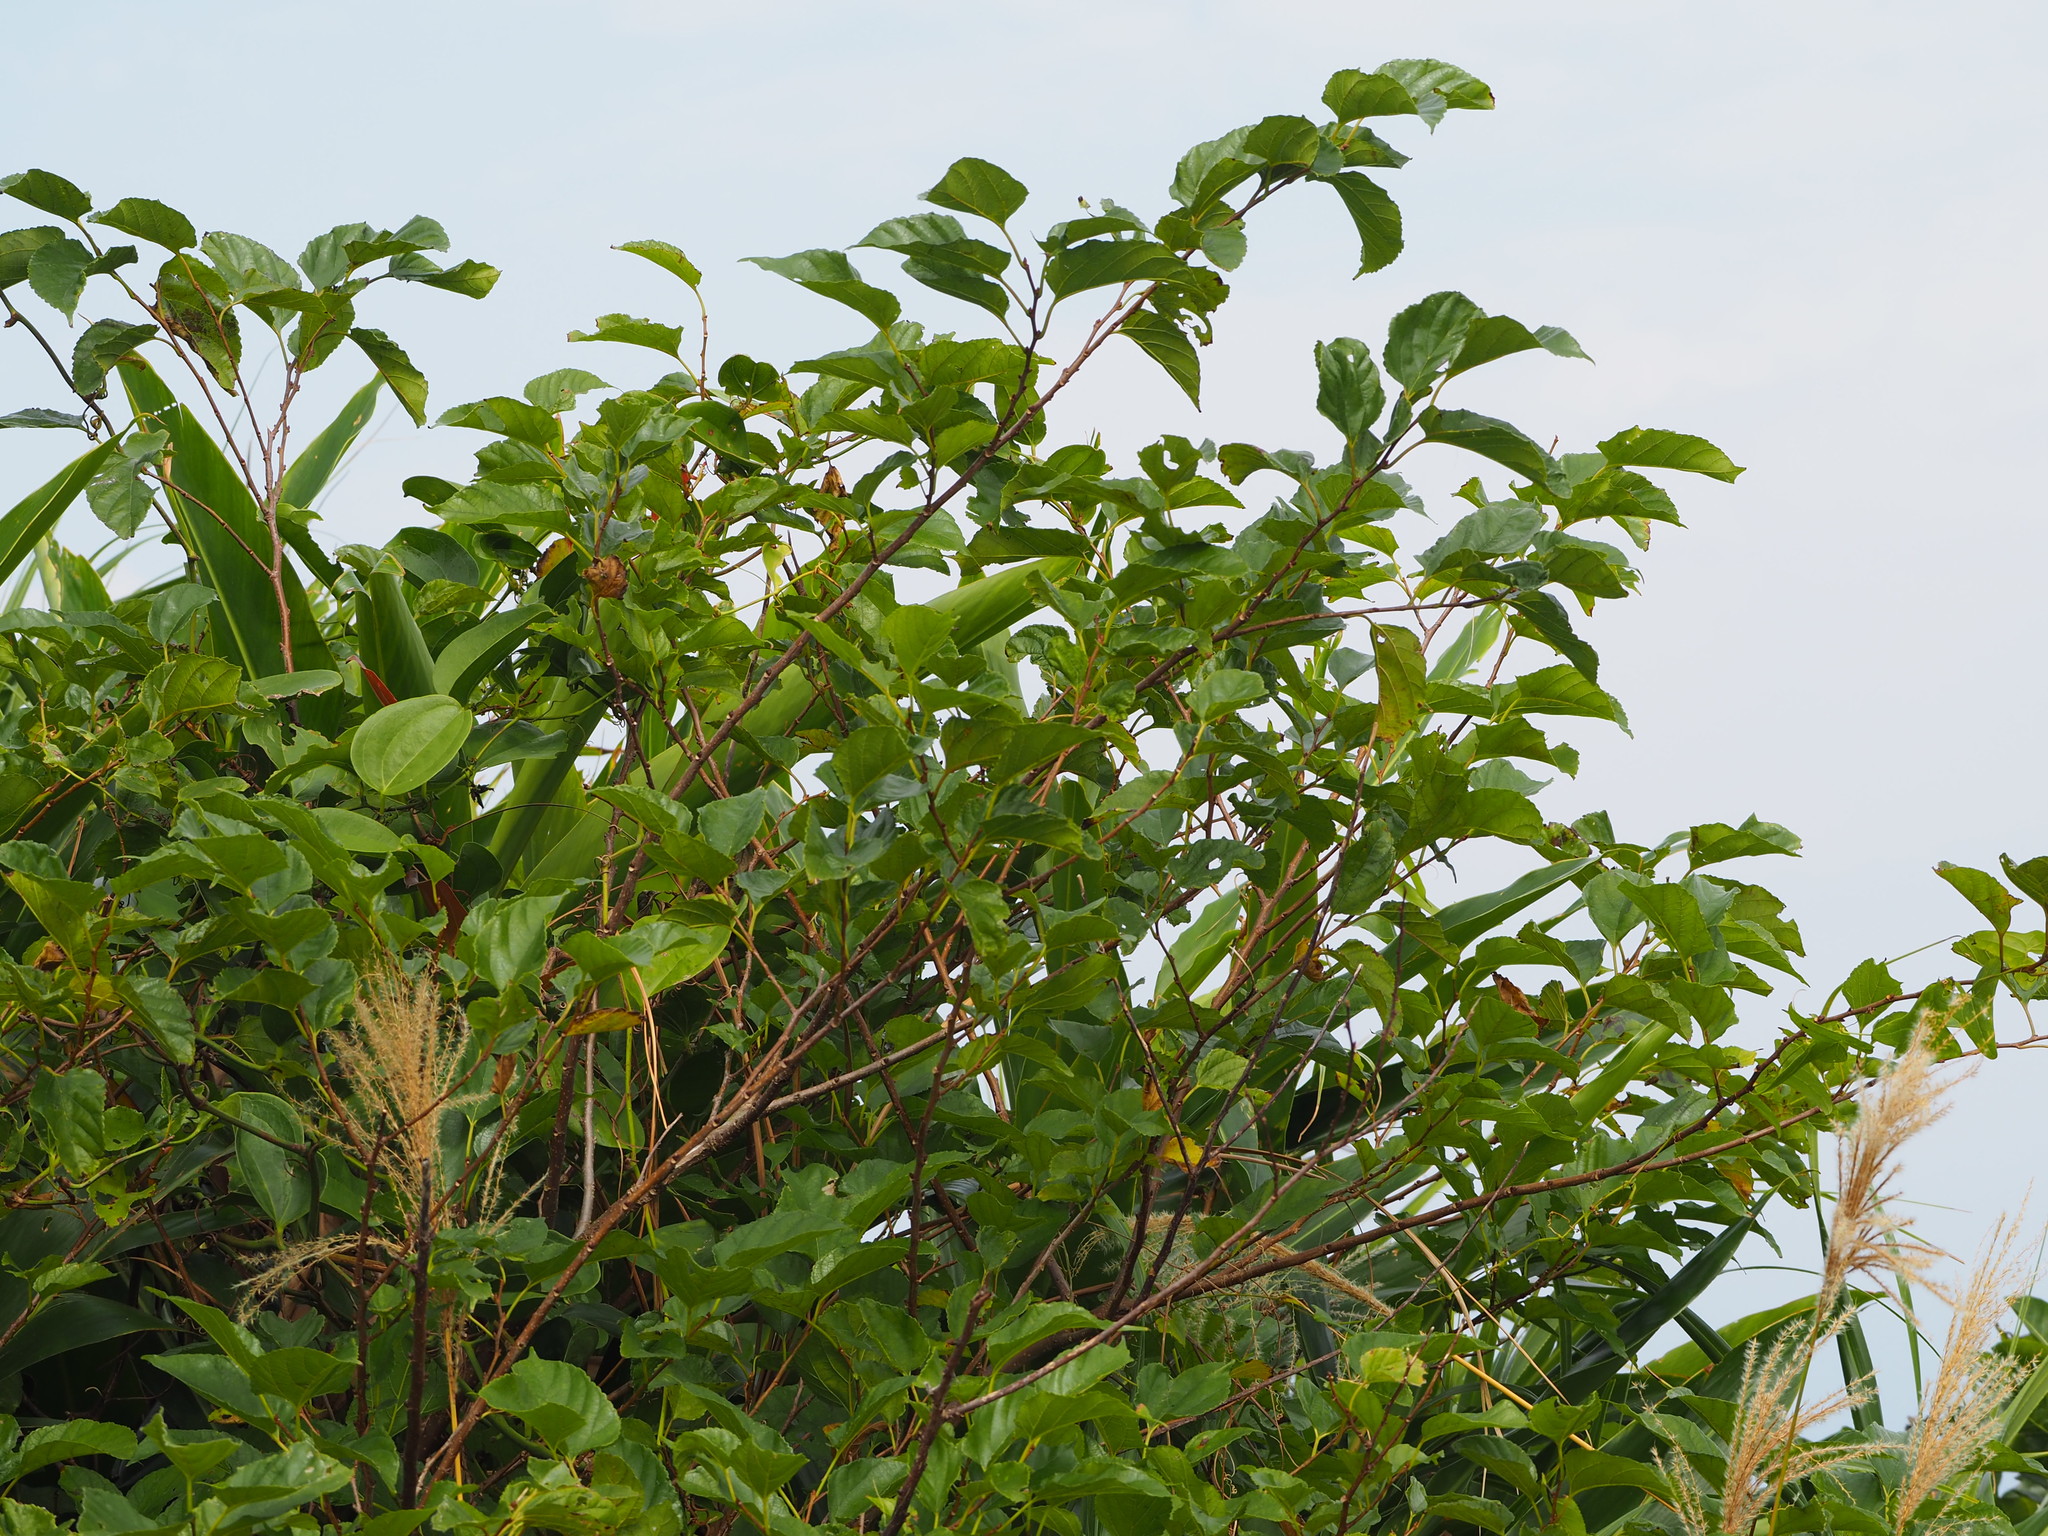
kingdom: Plantae
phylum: Tracheophyta
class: Magnoliopsida
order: Rosales
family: Moraceae
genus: Morus
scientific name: Morus indica
